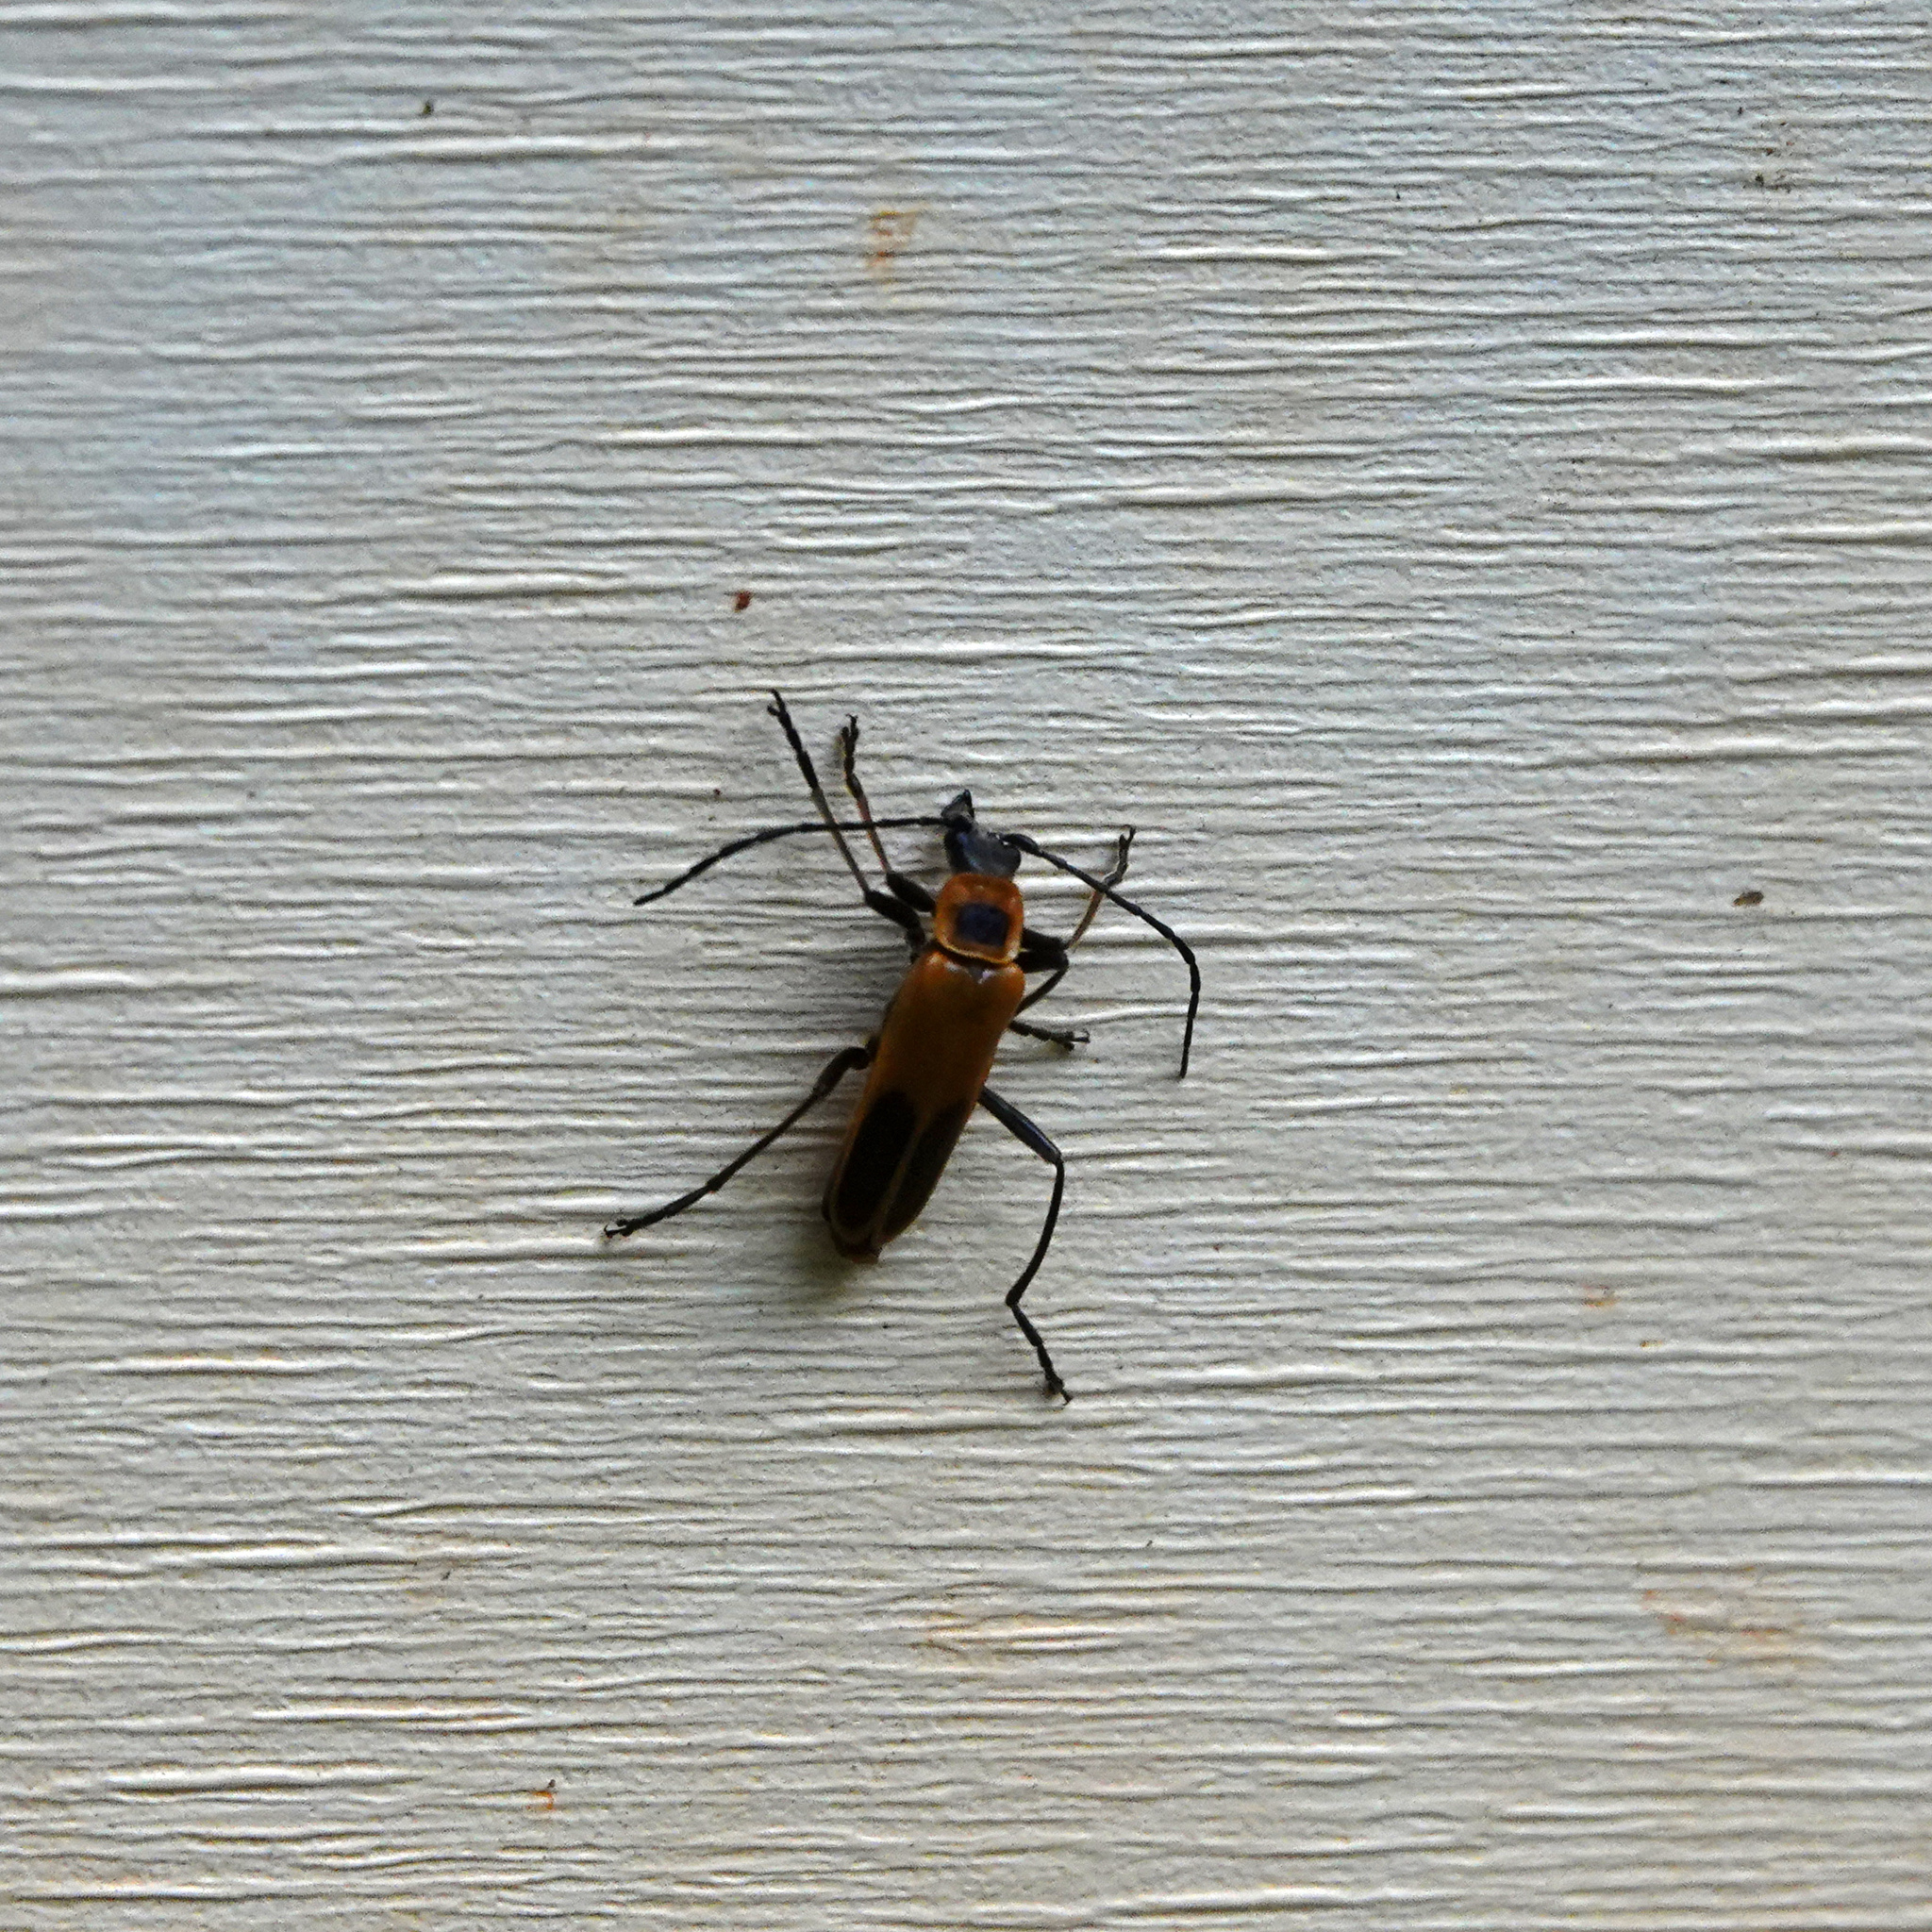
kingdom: Animalia
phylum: Arthropoda
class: Insecta
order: Coleoptera
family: Cantharidae
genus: Chauliognathus
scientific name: Chauliognathus pensylvanicus
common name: Goldenrod soldier beetle
